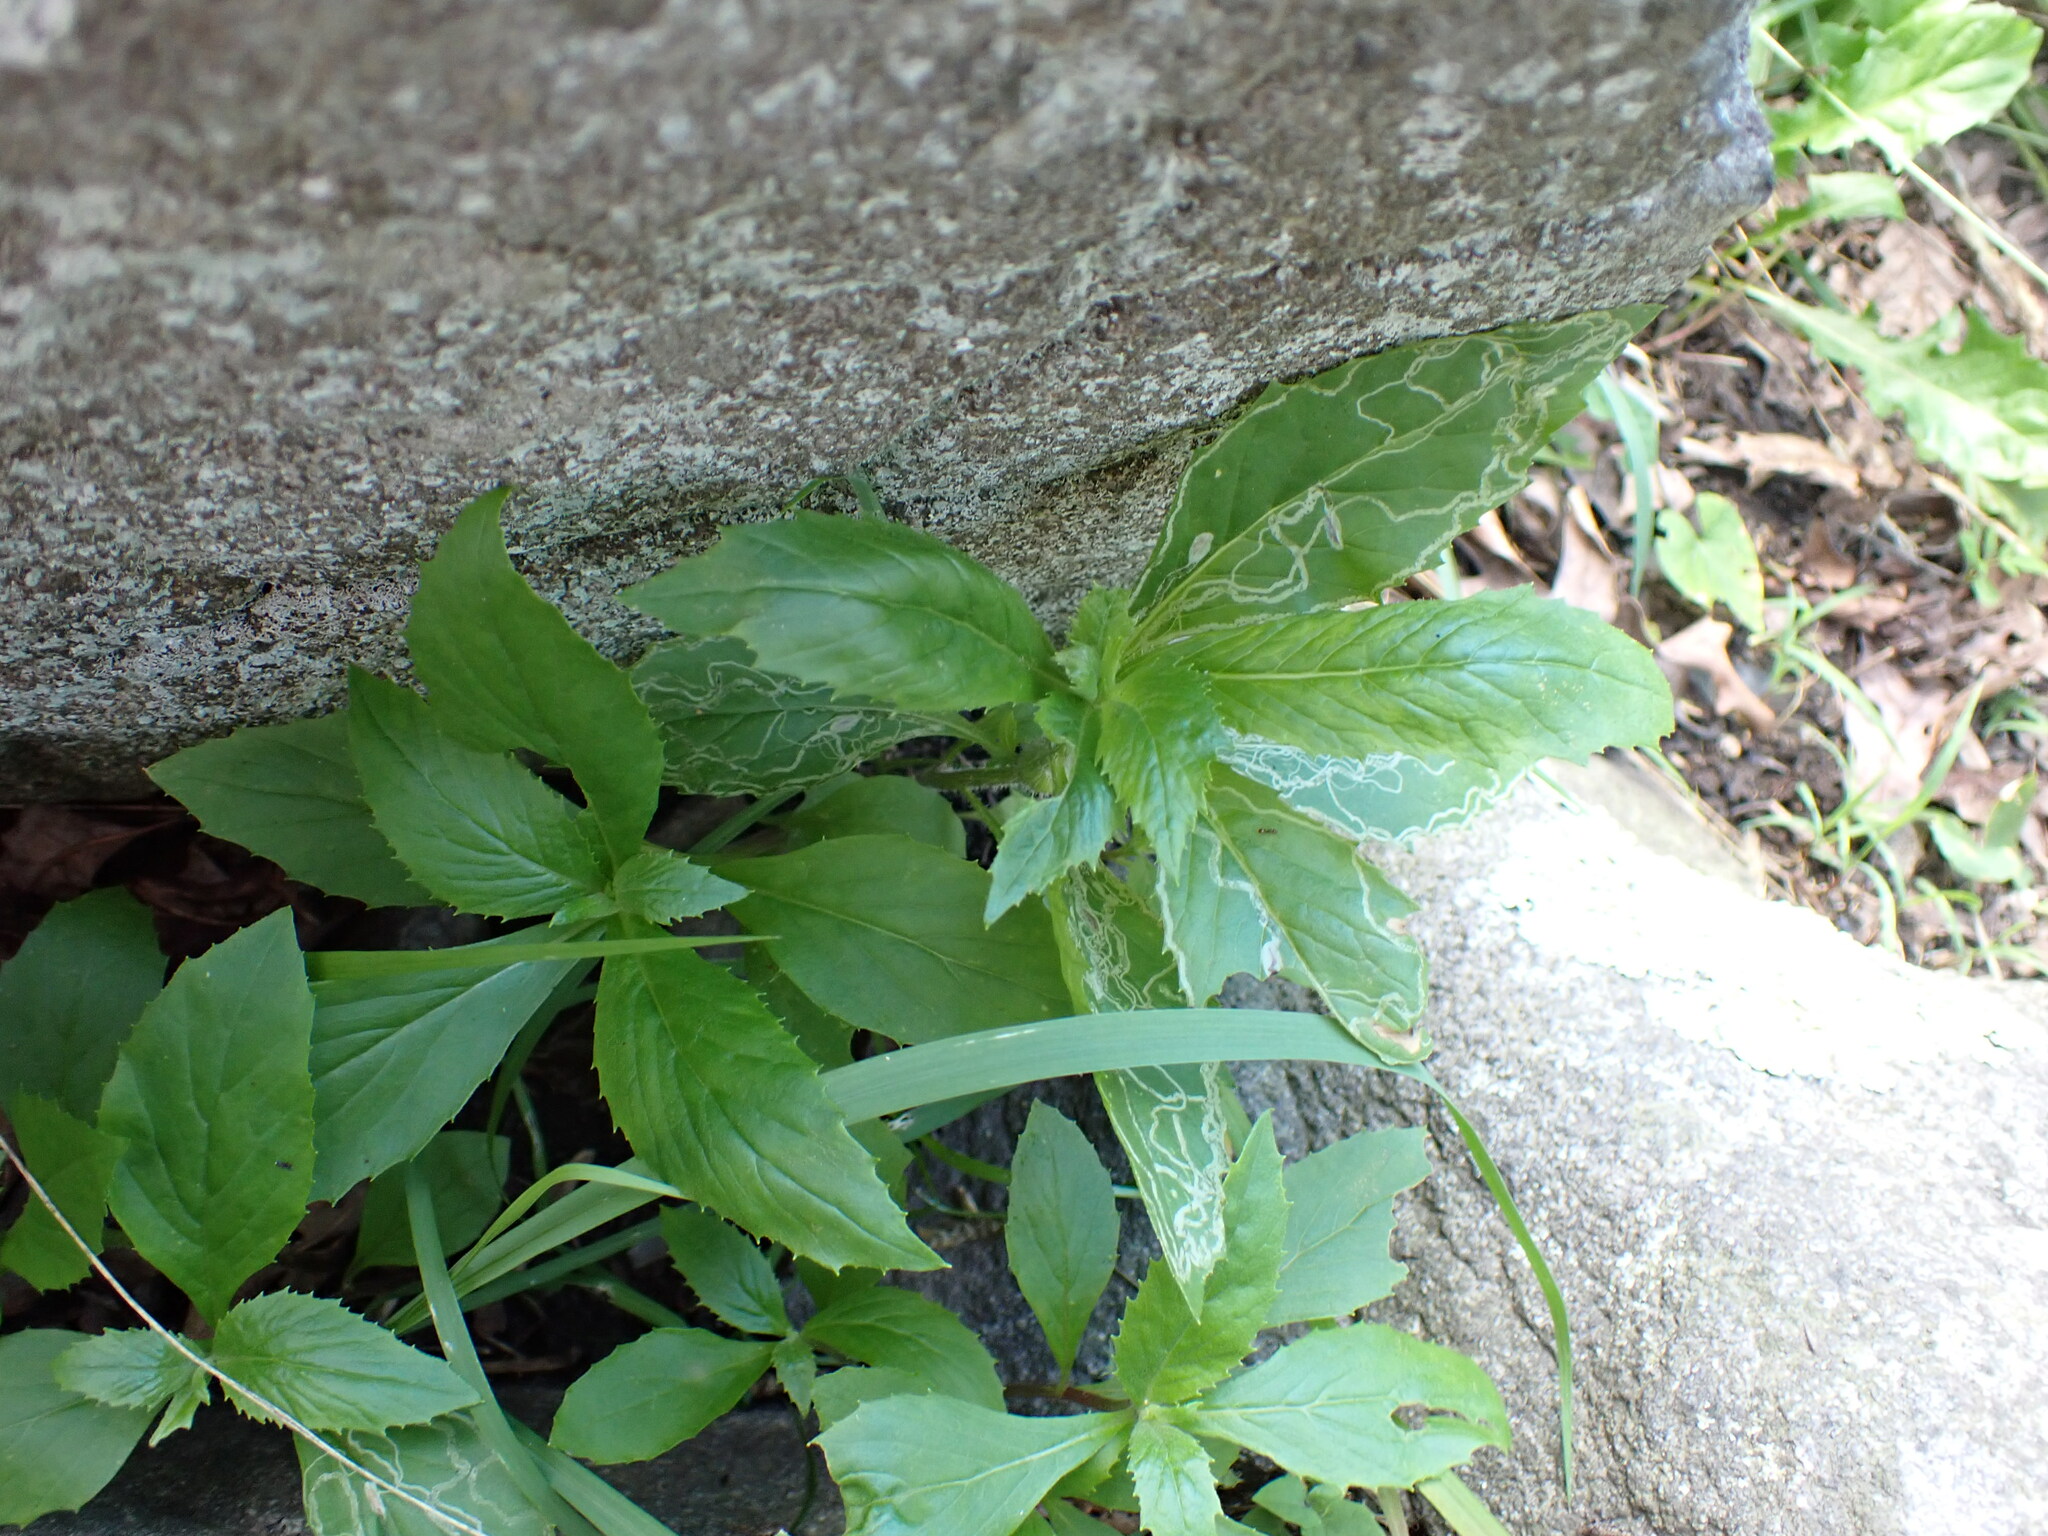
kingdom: Plantae
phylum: Tracheophyta
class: Magnoliopsida
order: Asterales
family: Asteraceae
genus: Erechtites
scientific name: Erechtites hieraciifolius
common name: American burnweed
